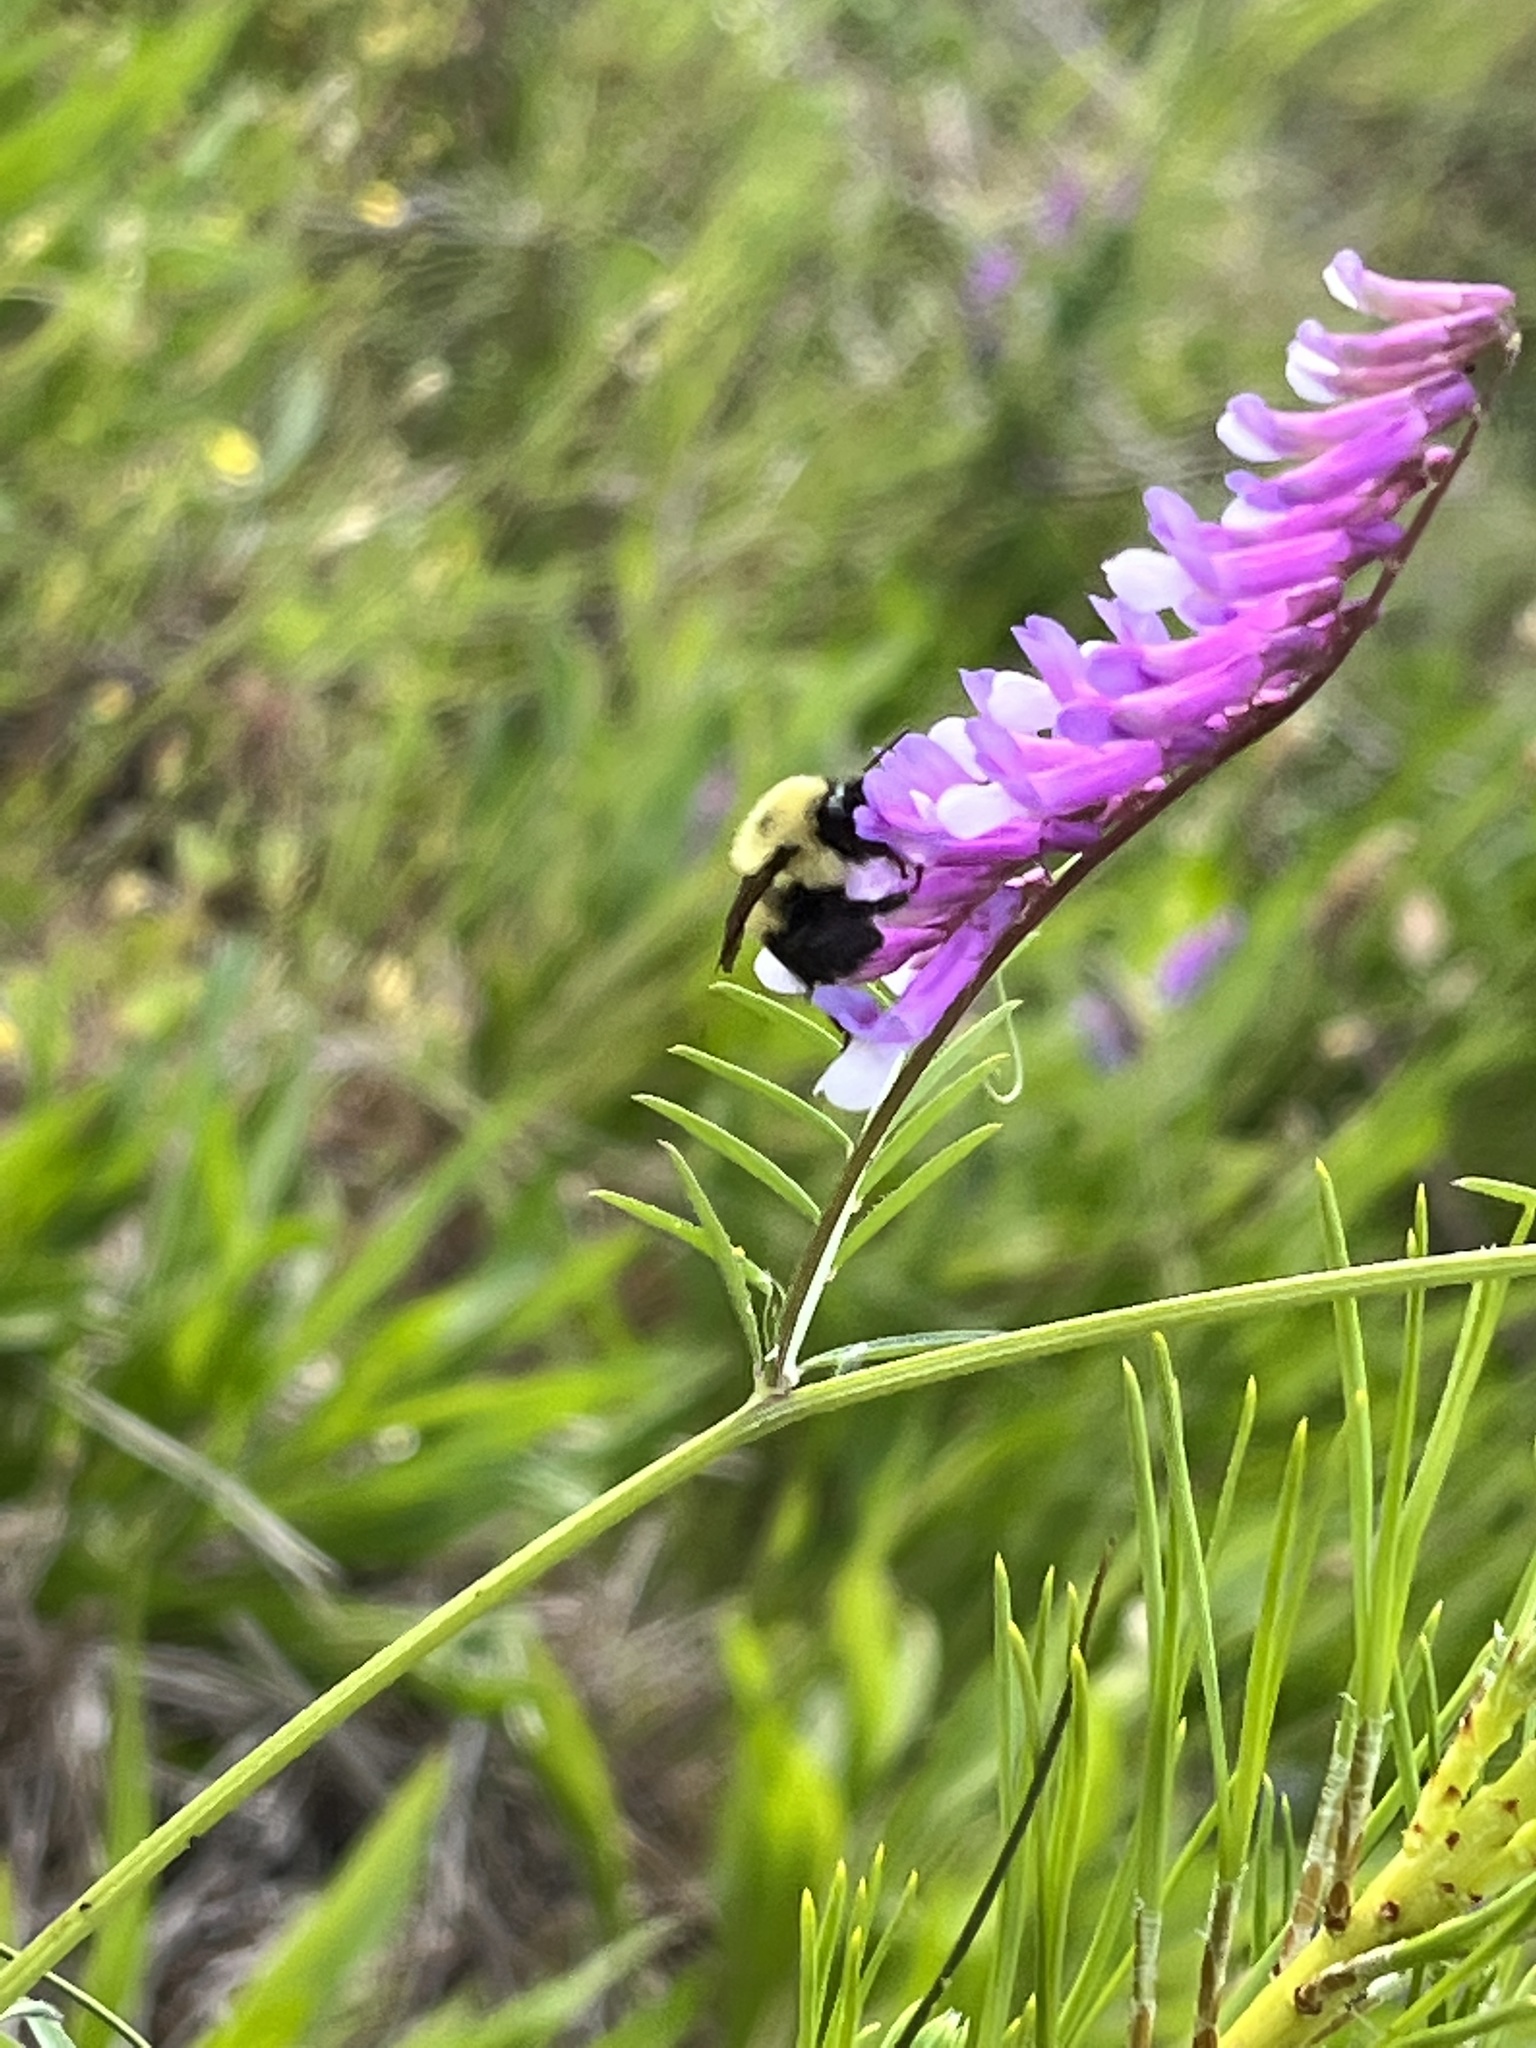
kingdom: Animalia
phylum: Arthropoda
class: Insecta
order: Hymenoptera
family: Apidae
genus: Bombus
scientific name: Bombus bimaculatus
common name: Two-spotted bumble bee
